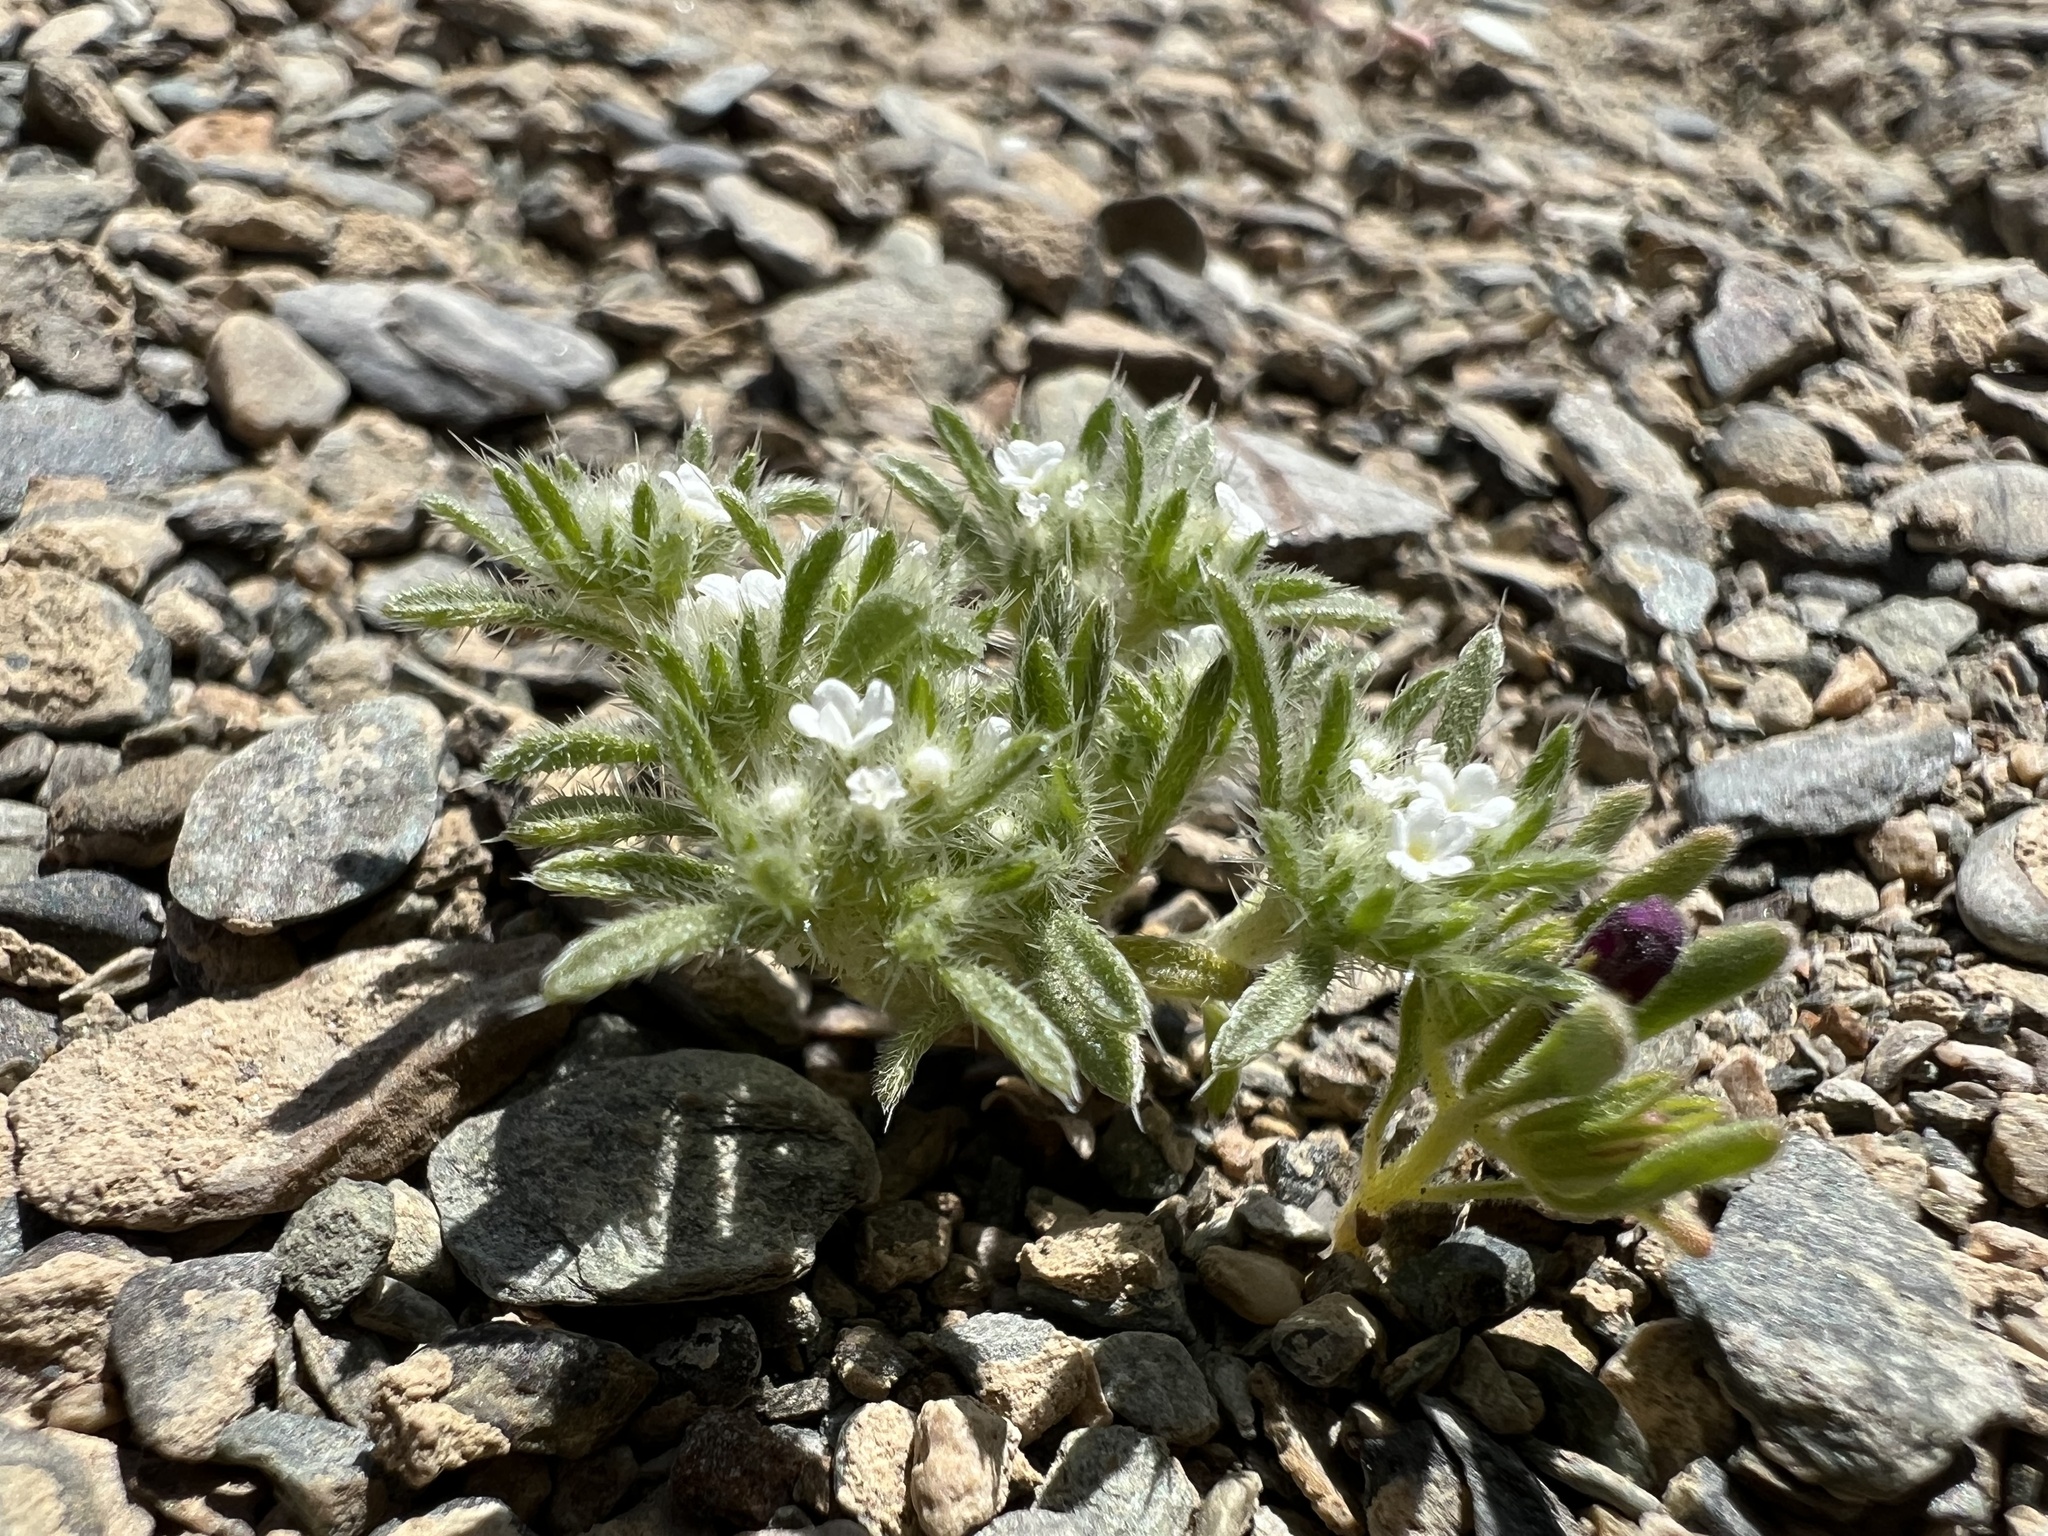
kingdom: Plantae
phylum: Tracheophyta
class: Magnoliopsida
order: Boraginales
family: Boraginaceae
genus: Greeneocharis
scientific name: Greeneocharis circumscissa
